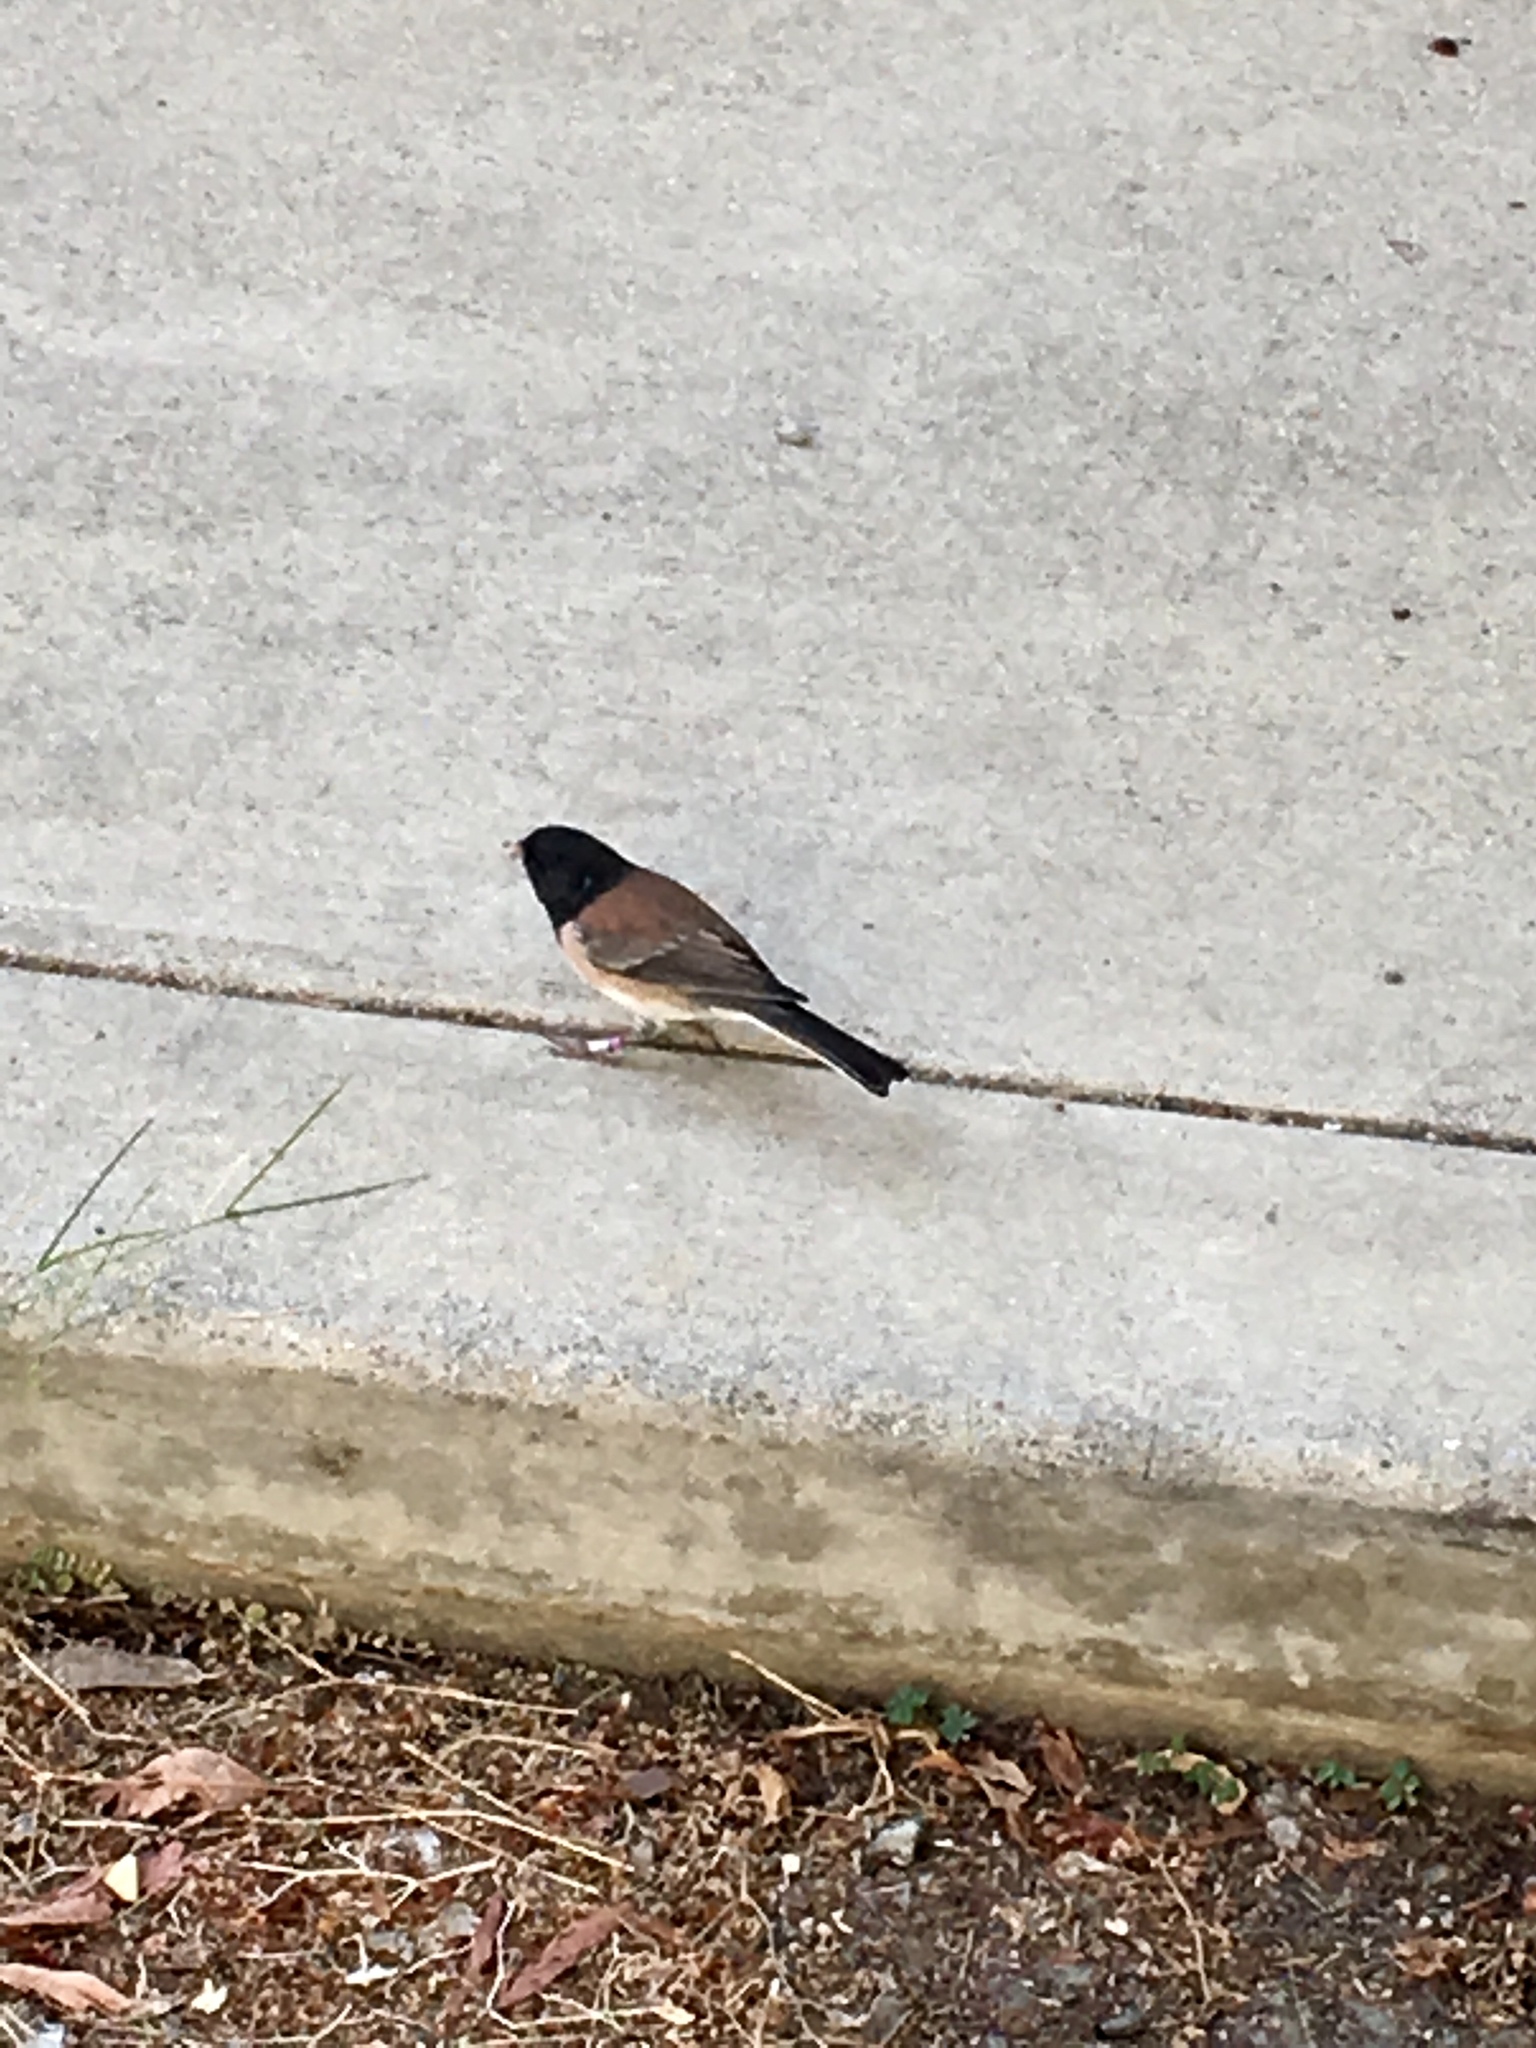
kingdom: Animalia
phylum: Chordata
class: Aves
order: Passeriformes
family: Passerellidae
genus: Junco
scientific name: Junco hyemalis
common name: Dark-eyed junco
